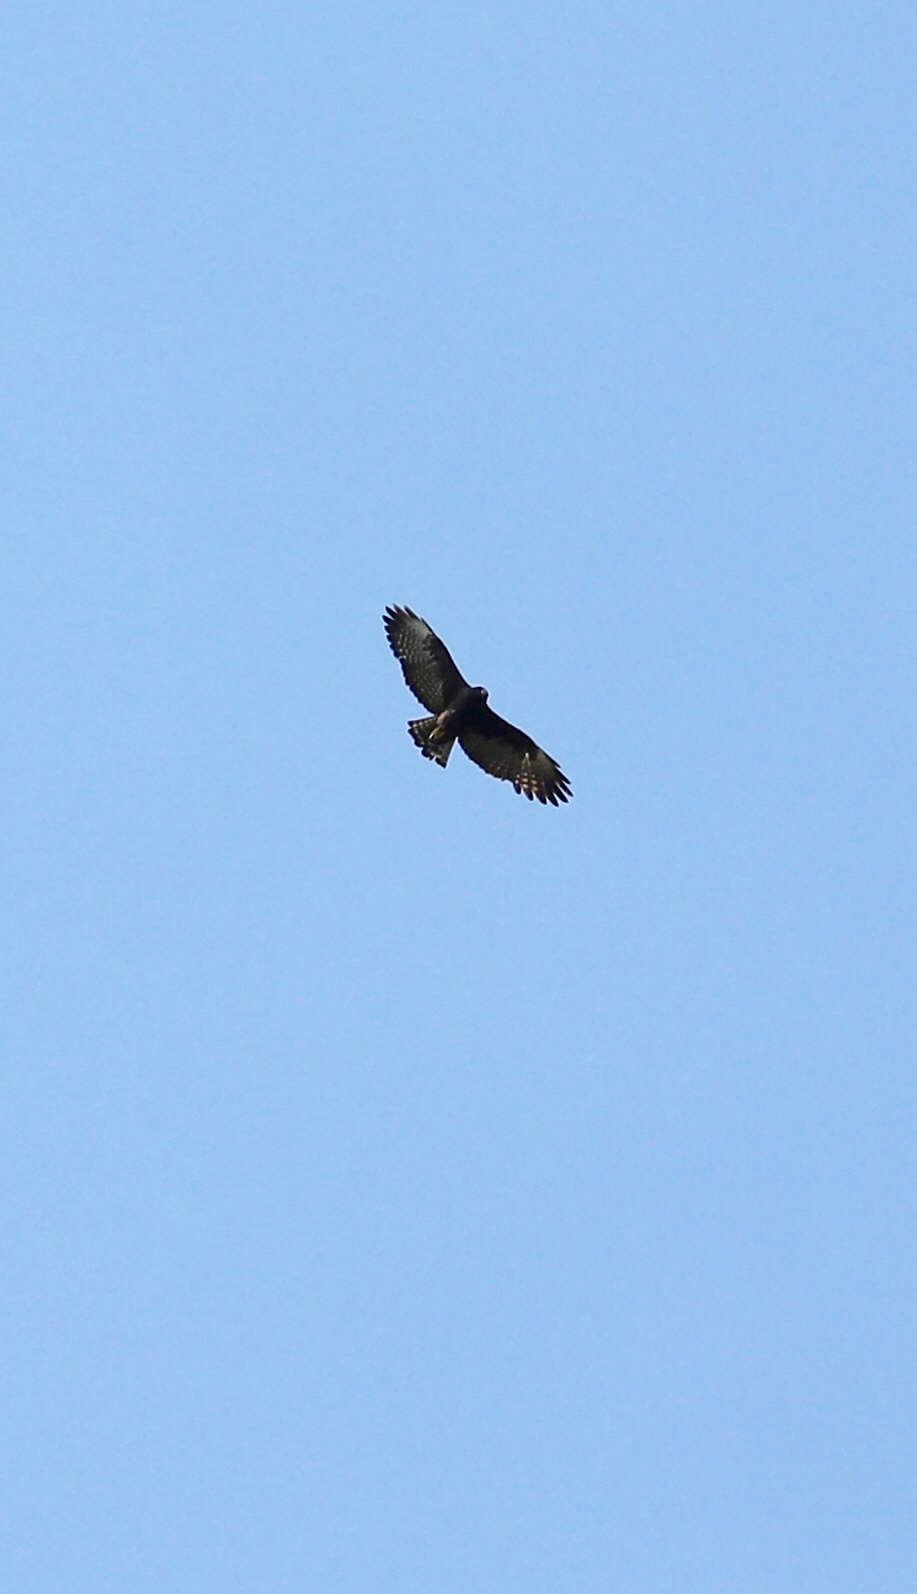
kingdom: Animalia
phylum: Chordata
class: Aves
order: Accipitriformes
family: Accipitridae
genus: Buteo
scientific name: Buteo brachyurus
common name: Short-tailed hawk
